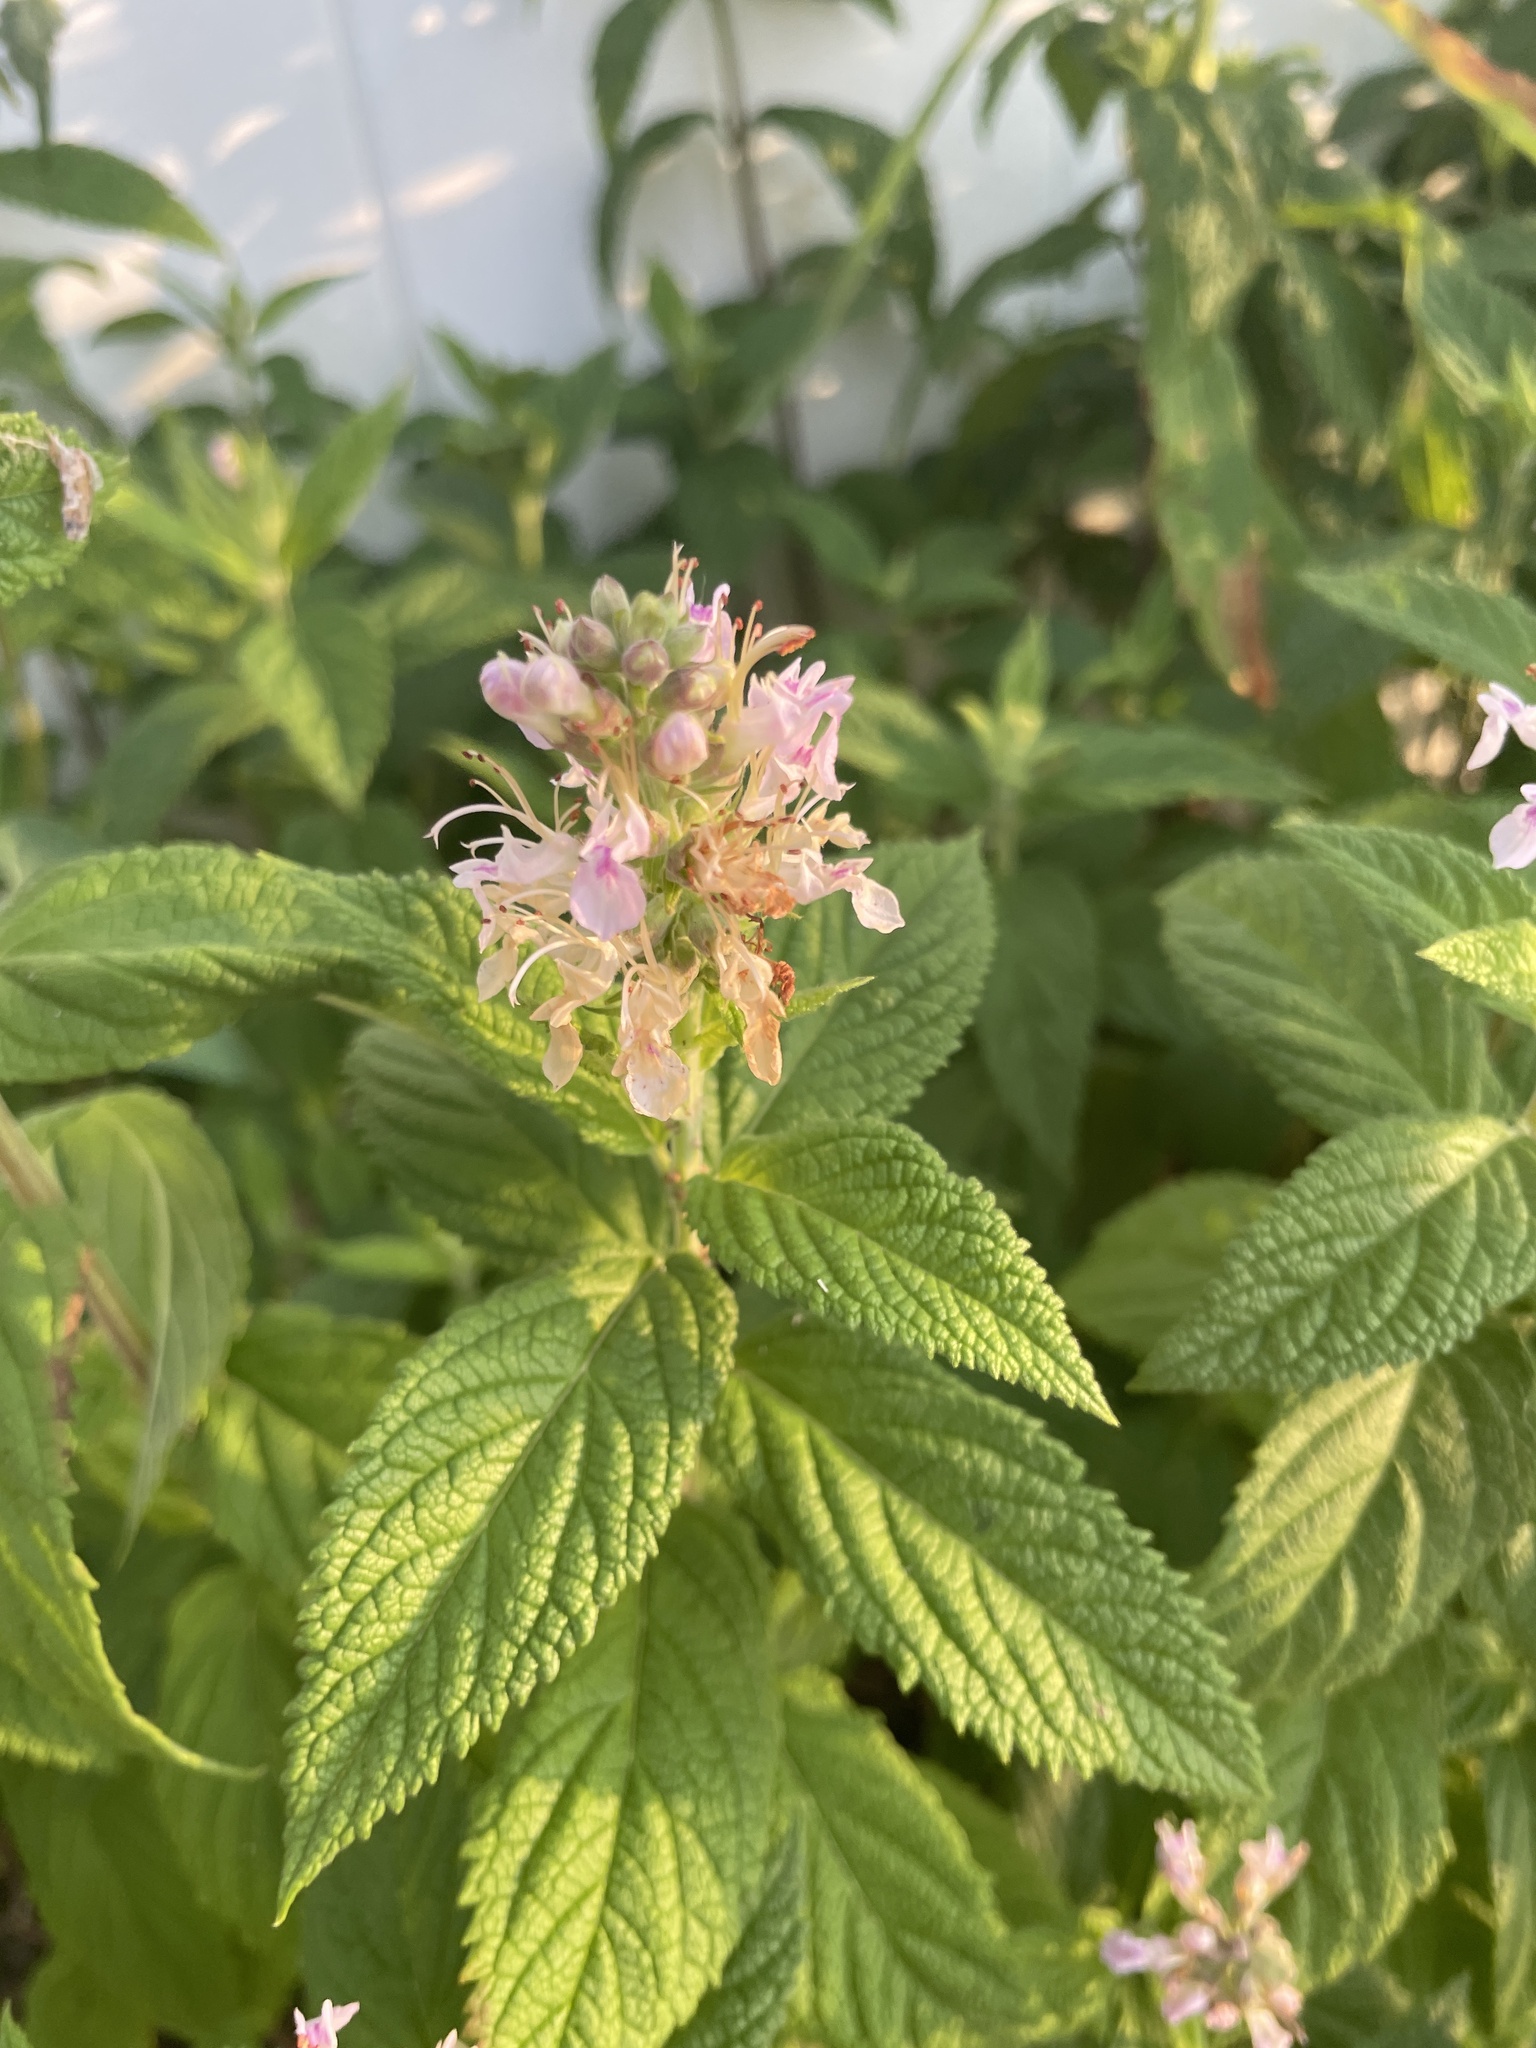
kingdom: Plantae
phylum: Tracheophyta
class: Magnoliopsida
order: Lamiales
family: Lamiaceae
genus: Teucrium
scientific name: Teucrium canadense
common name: American germander
